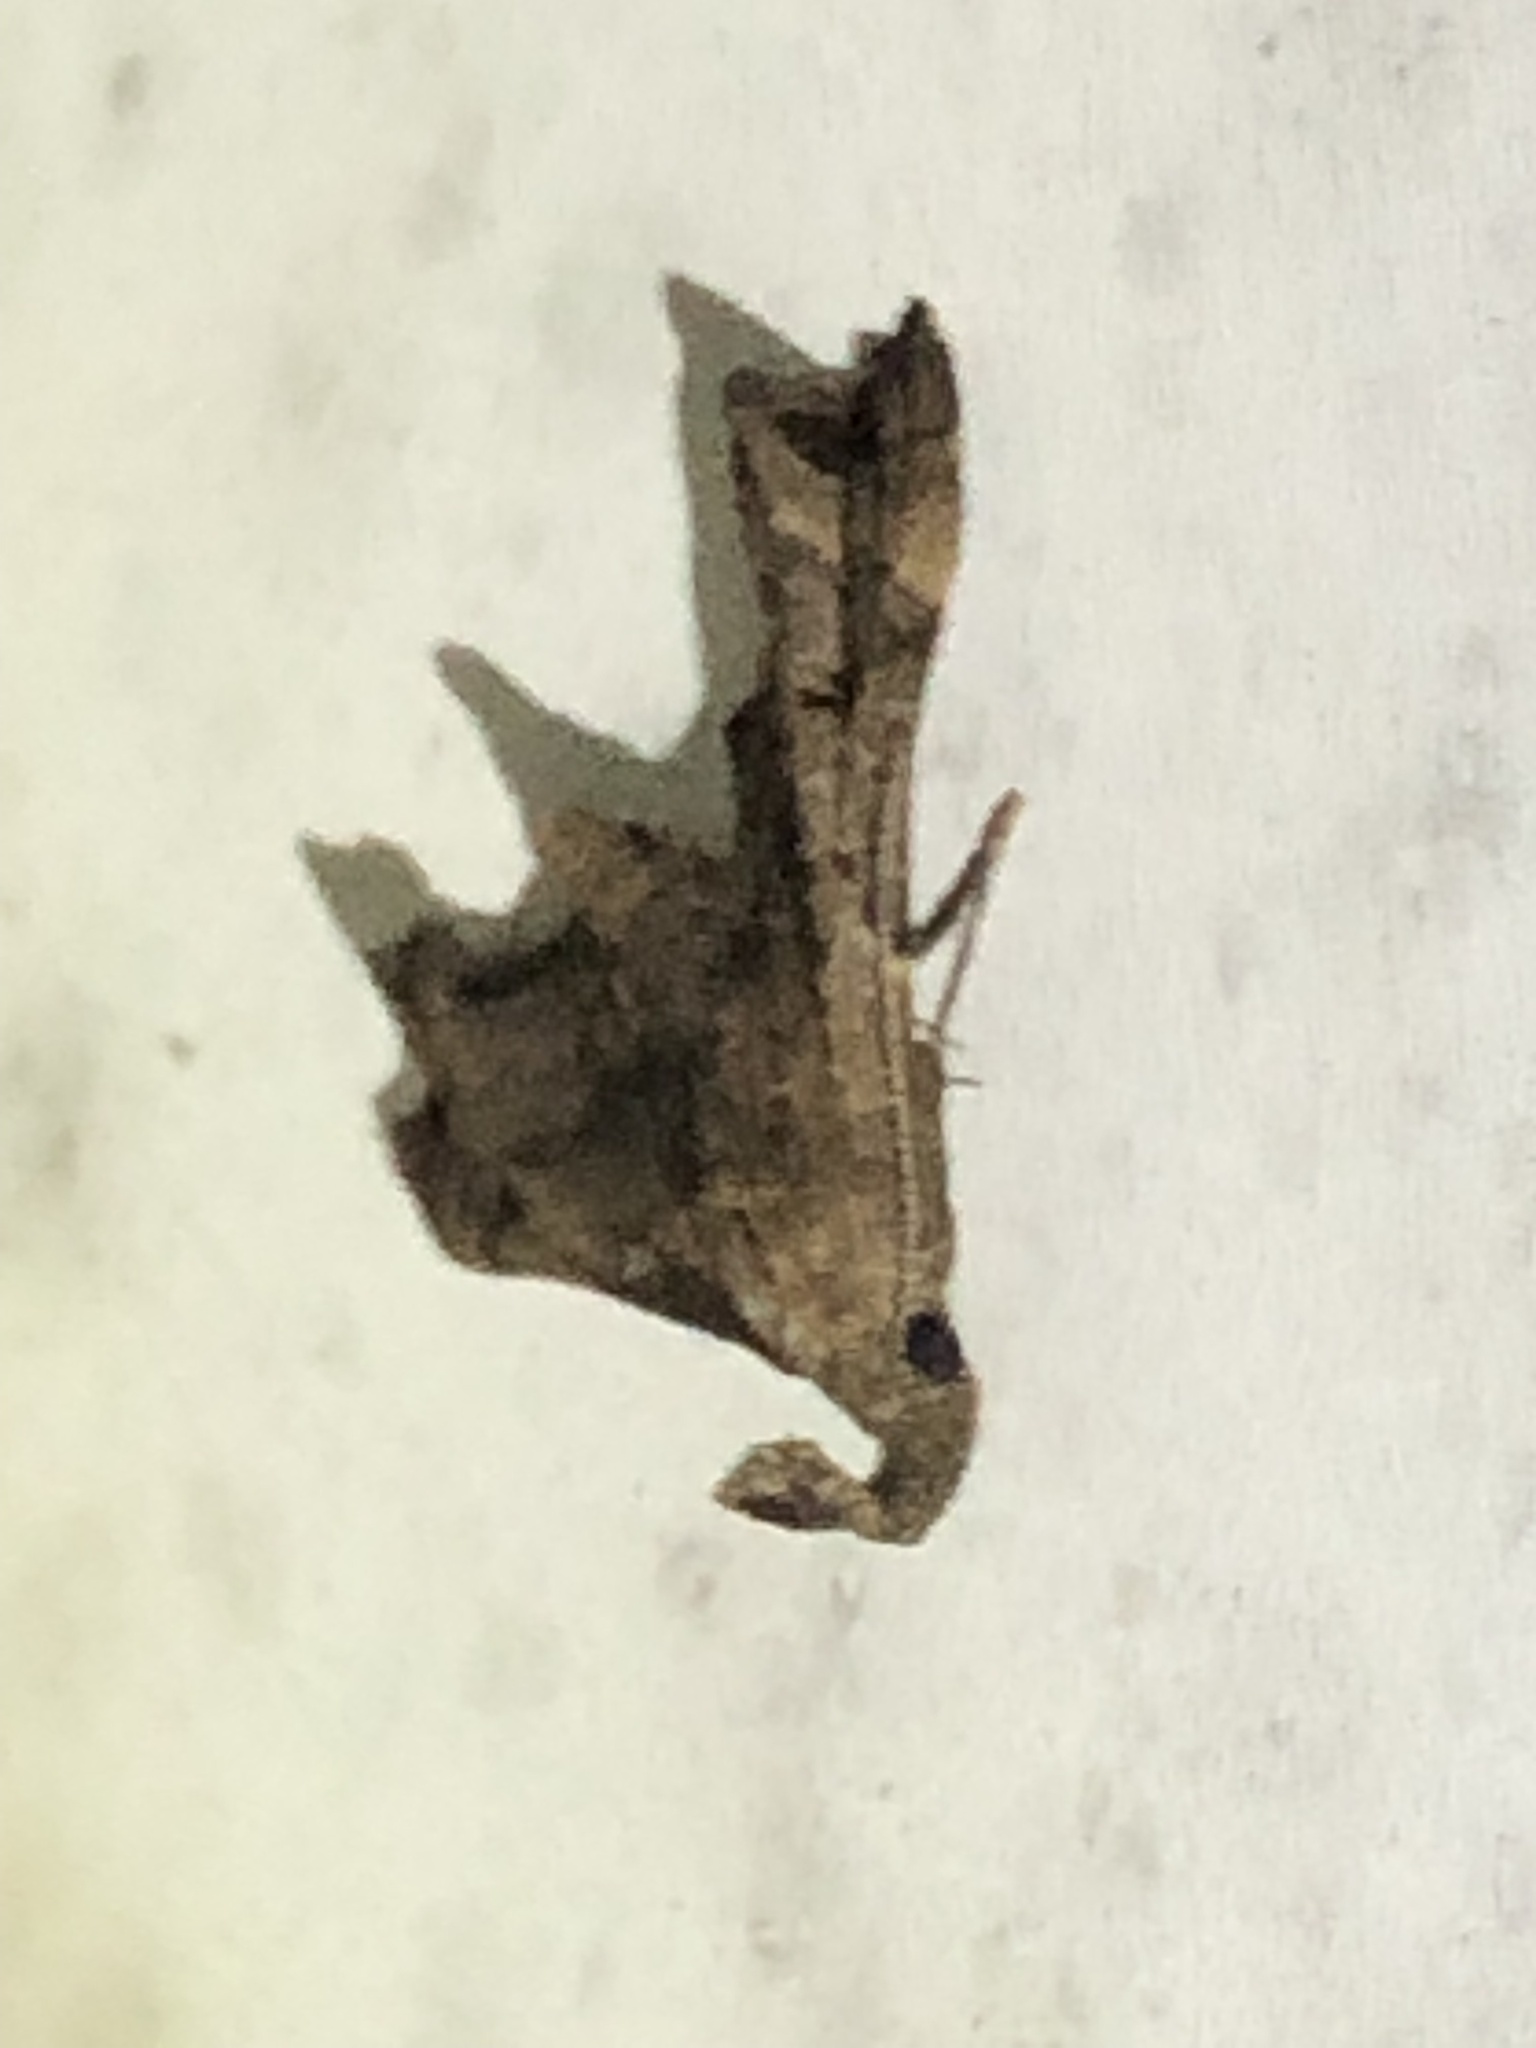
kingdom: Animalia
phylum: Arthropoda
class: Insecta
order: Lepidoptera
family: Erebidae
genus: Palthis
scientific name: Palthis asopialis
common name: Faint-spotted palthis moth
